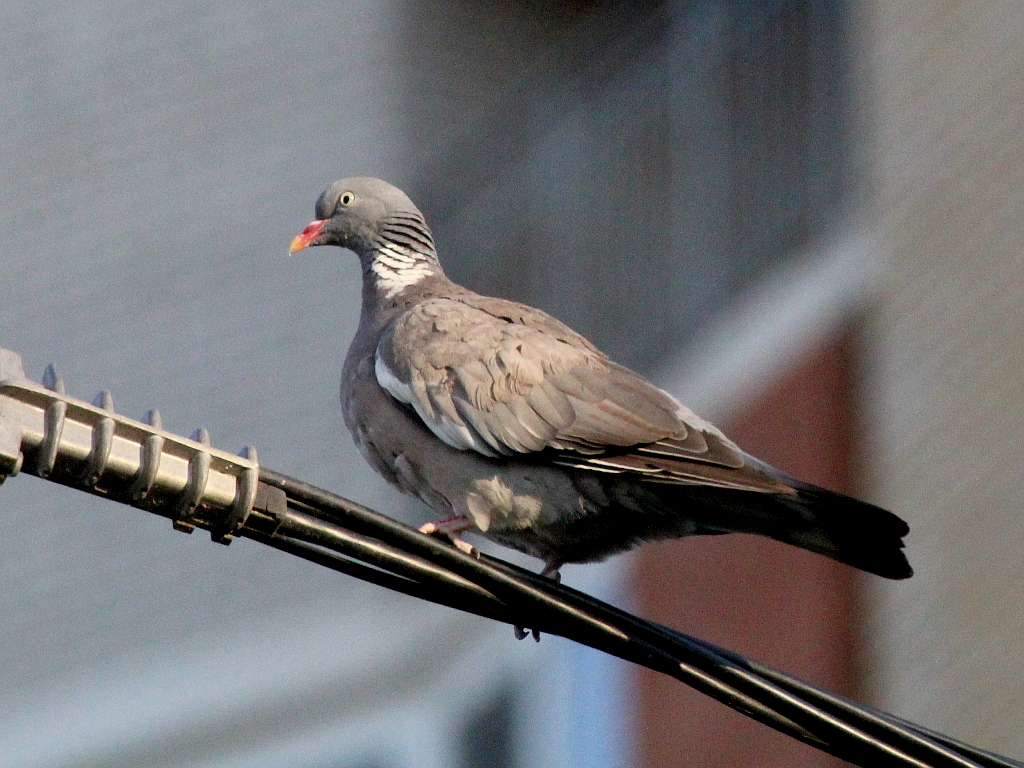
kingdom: Animalia
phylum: Chordata
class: Aves
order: Columbiformes
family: Columbidae
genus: Columba
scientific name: Columba palumbus
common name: Common wood pigeon
